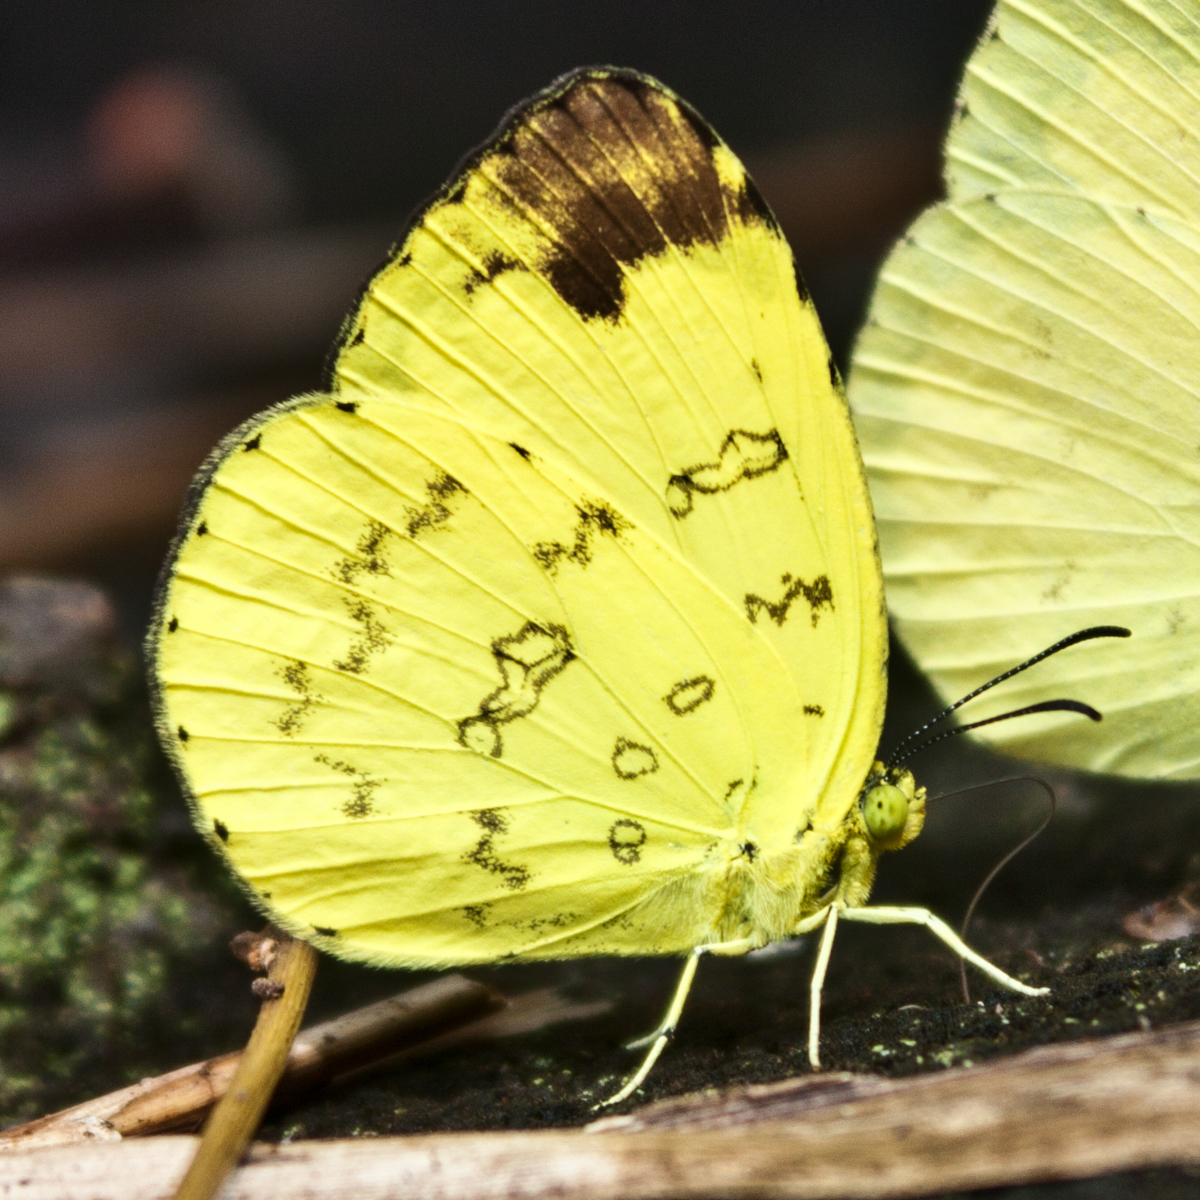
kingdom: Animalia
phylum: Arthropoda
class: Insecta
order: Lepidoptera
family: Pieridae
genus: Eurema
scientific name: Eurema simulatrix
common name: Hill grass yellow
